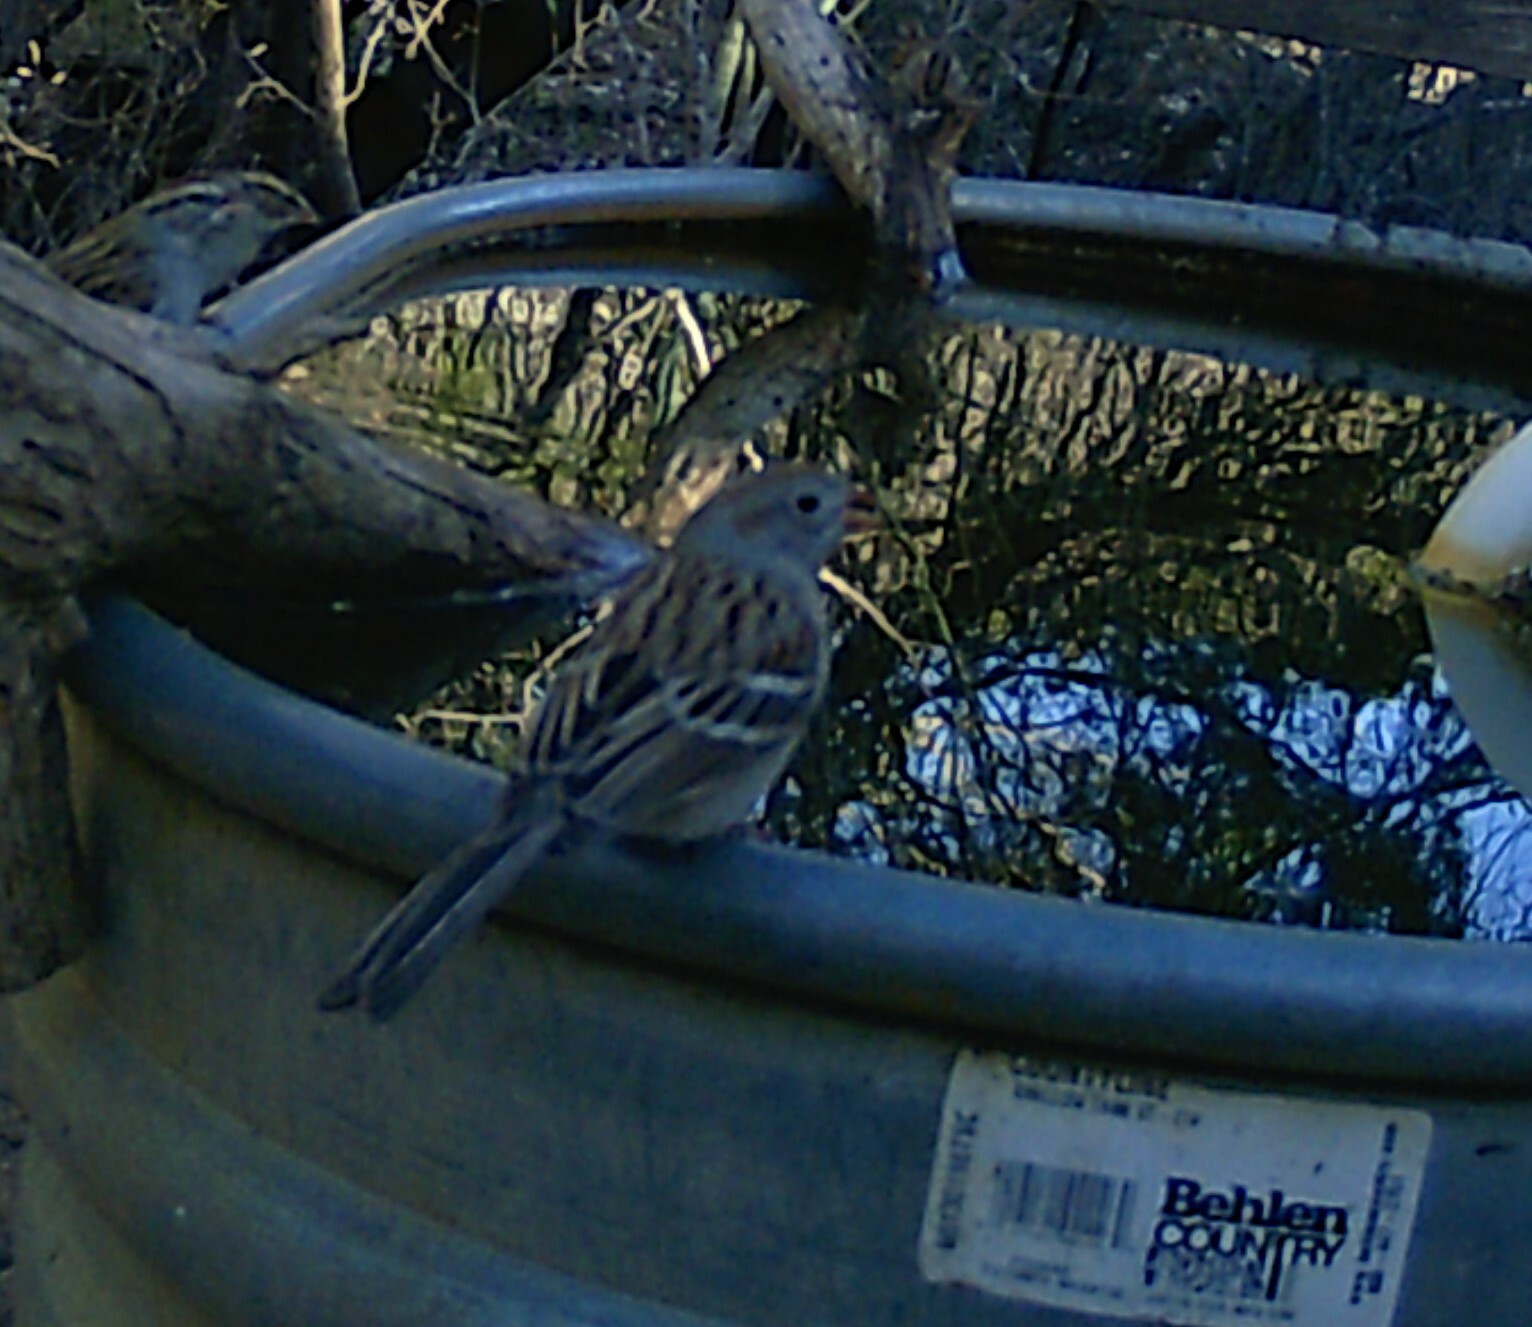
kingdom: Animalia
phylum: Chordata
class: Aves
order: Passeriformes
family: Passerellidae
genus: Spizella
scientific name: Spizella pusilla
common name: Field sparrow
